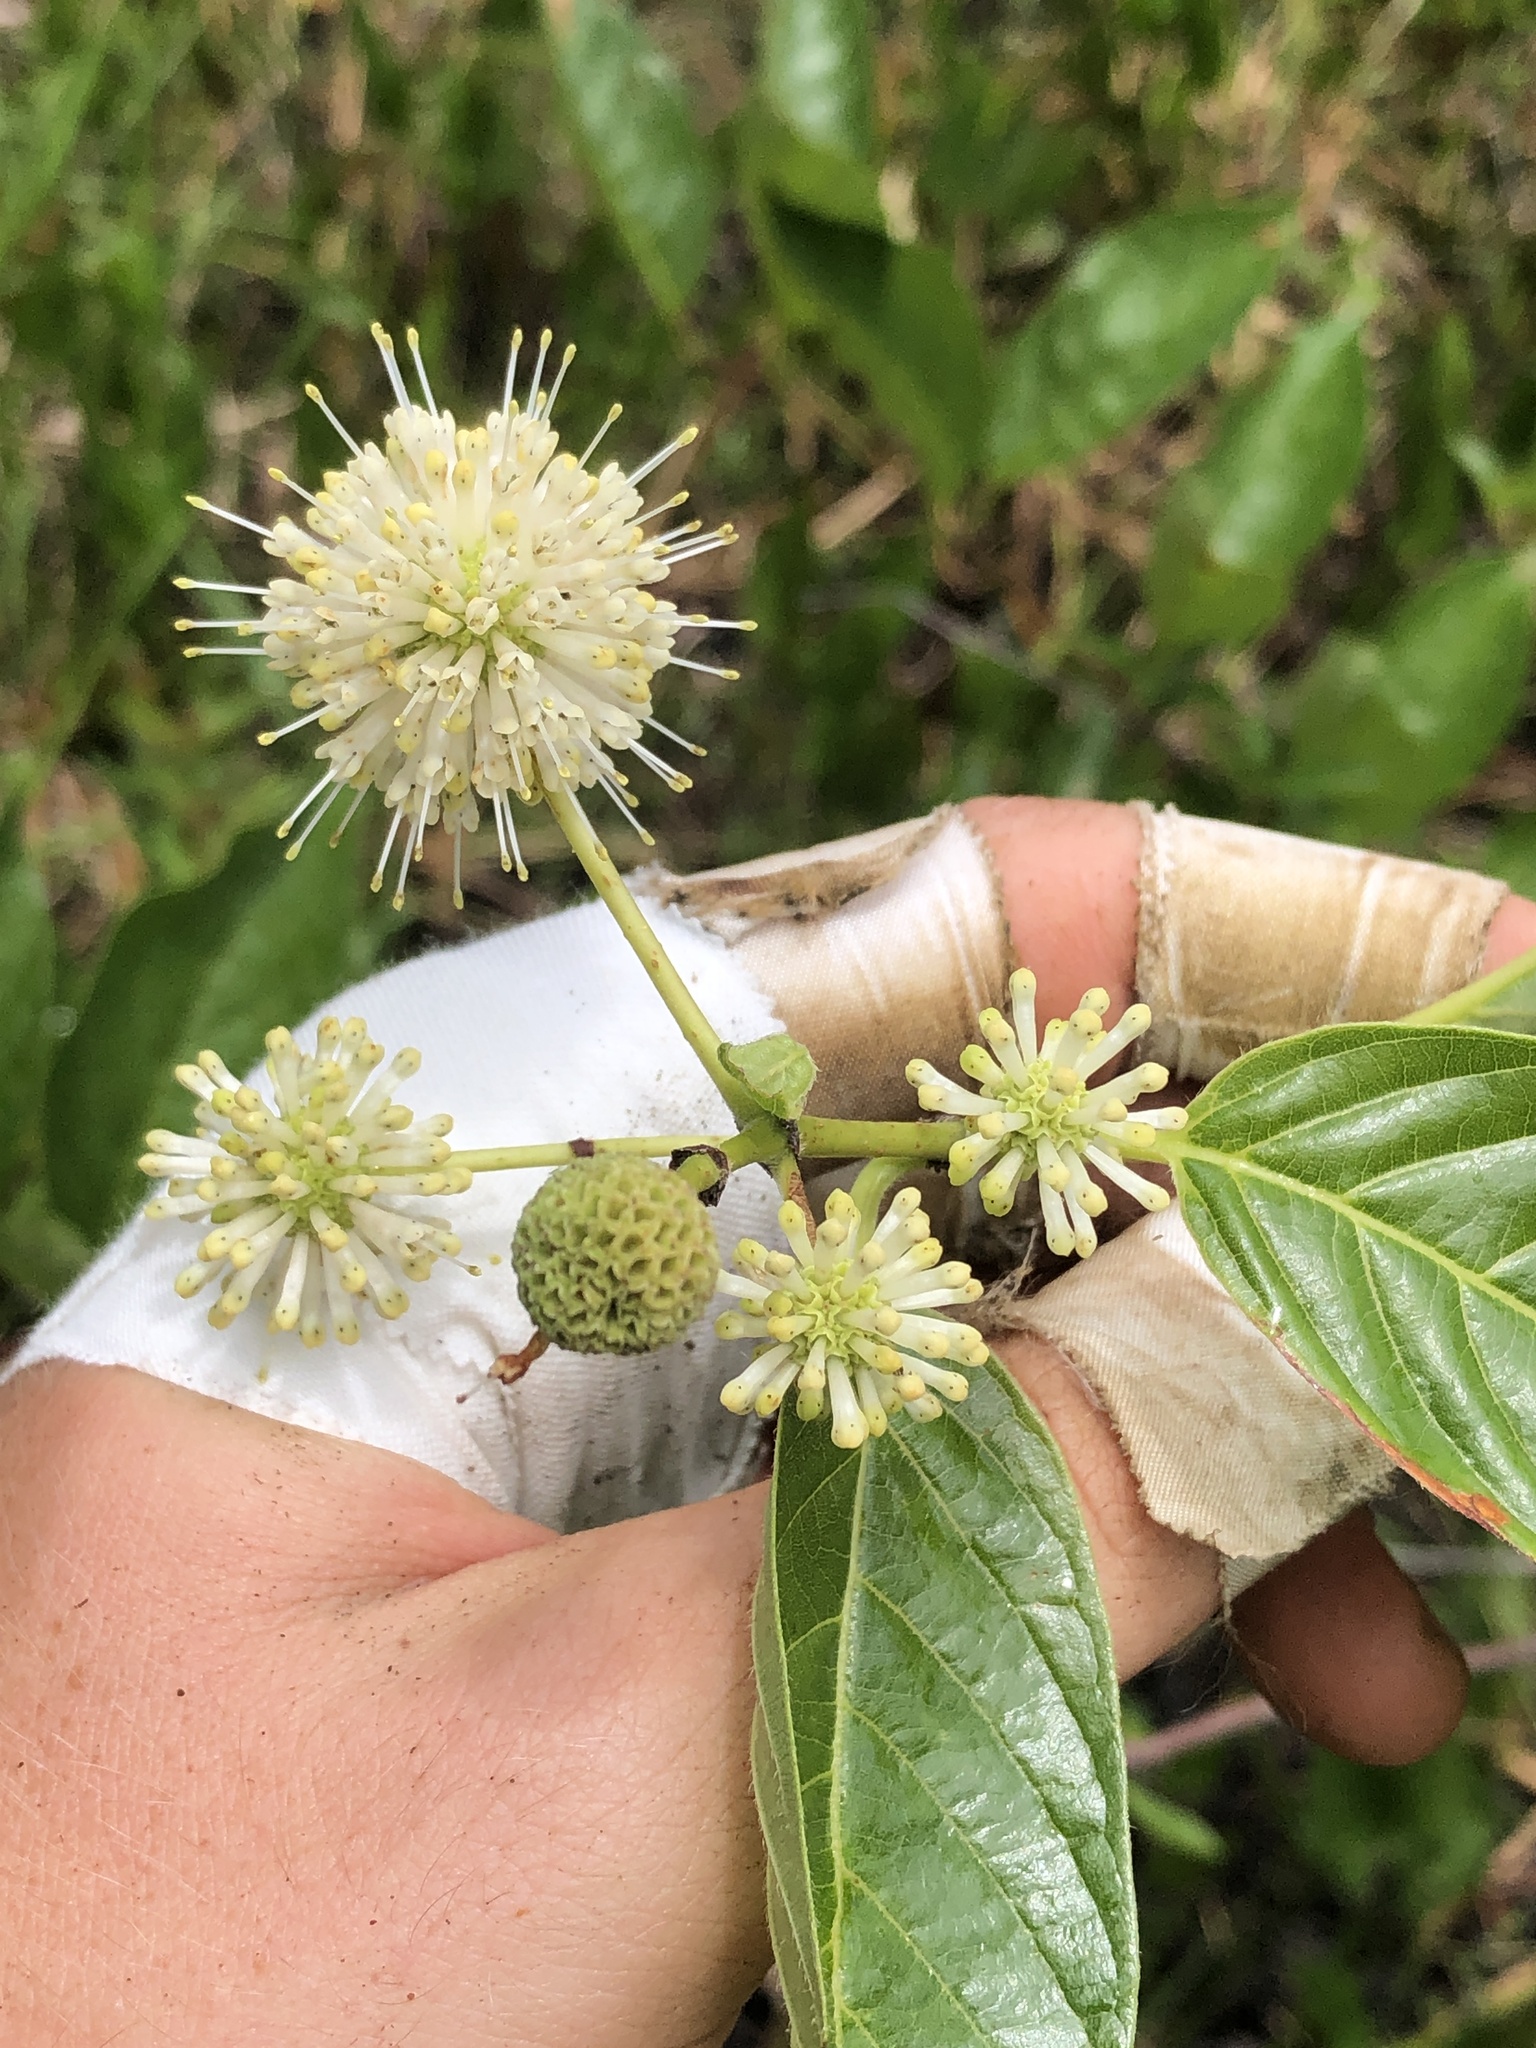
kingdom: Plantae
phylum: Tracheophyta
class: Magnoliopsida
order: Gentianales
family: Rubiaceae
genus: Cephalanthus
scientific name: Cephalanthus occidentalis
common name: Button-willow
